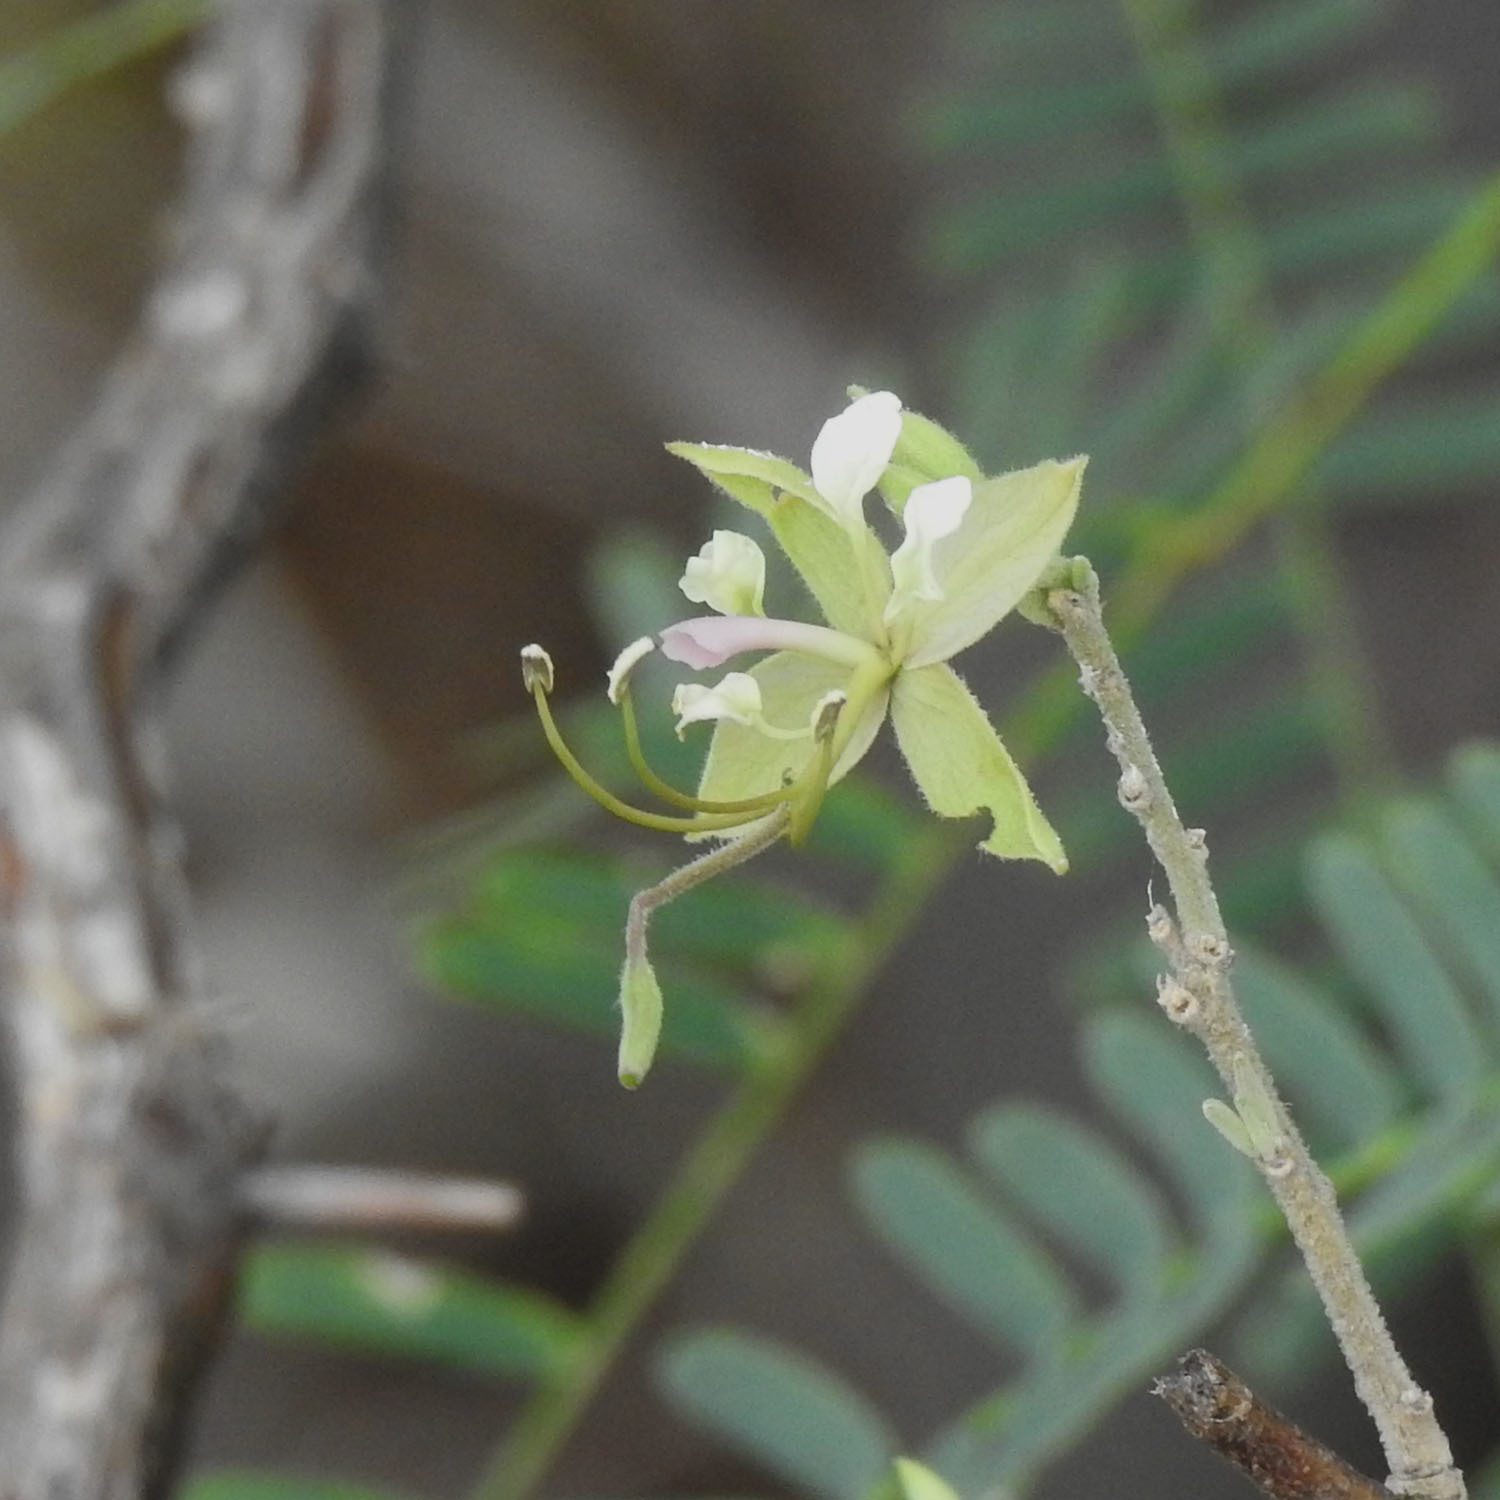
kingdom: Plantae
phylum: Tracheophyta
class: Magnoliopsida
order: Brassicales
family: Capparaceae
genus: Cadaba
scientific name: Cadaba fruticosa
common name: Indian cadaba
